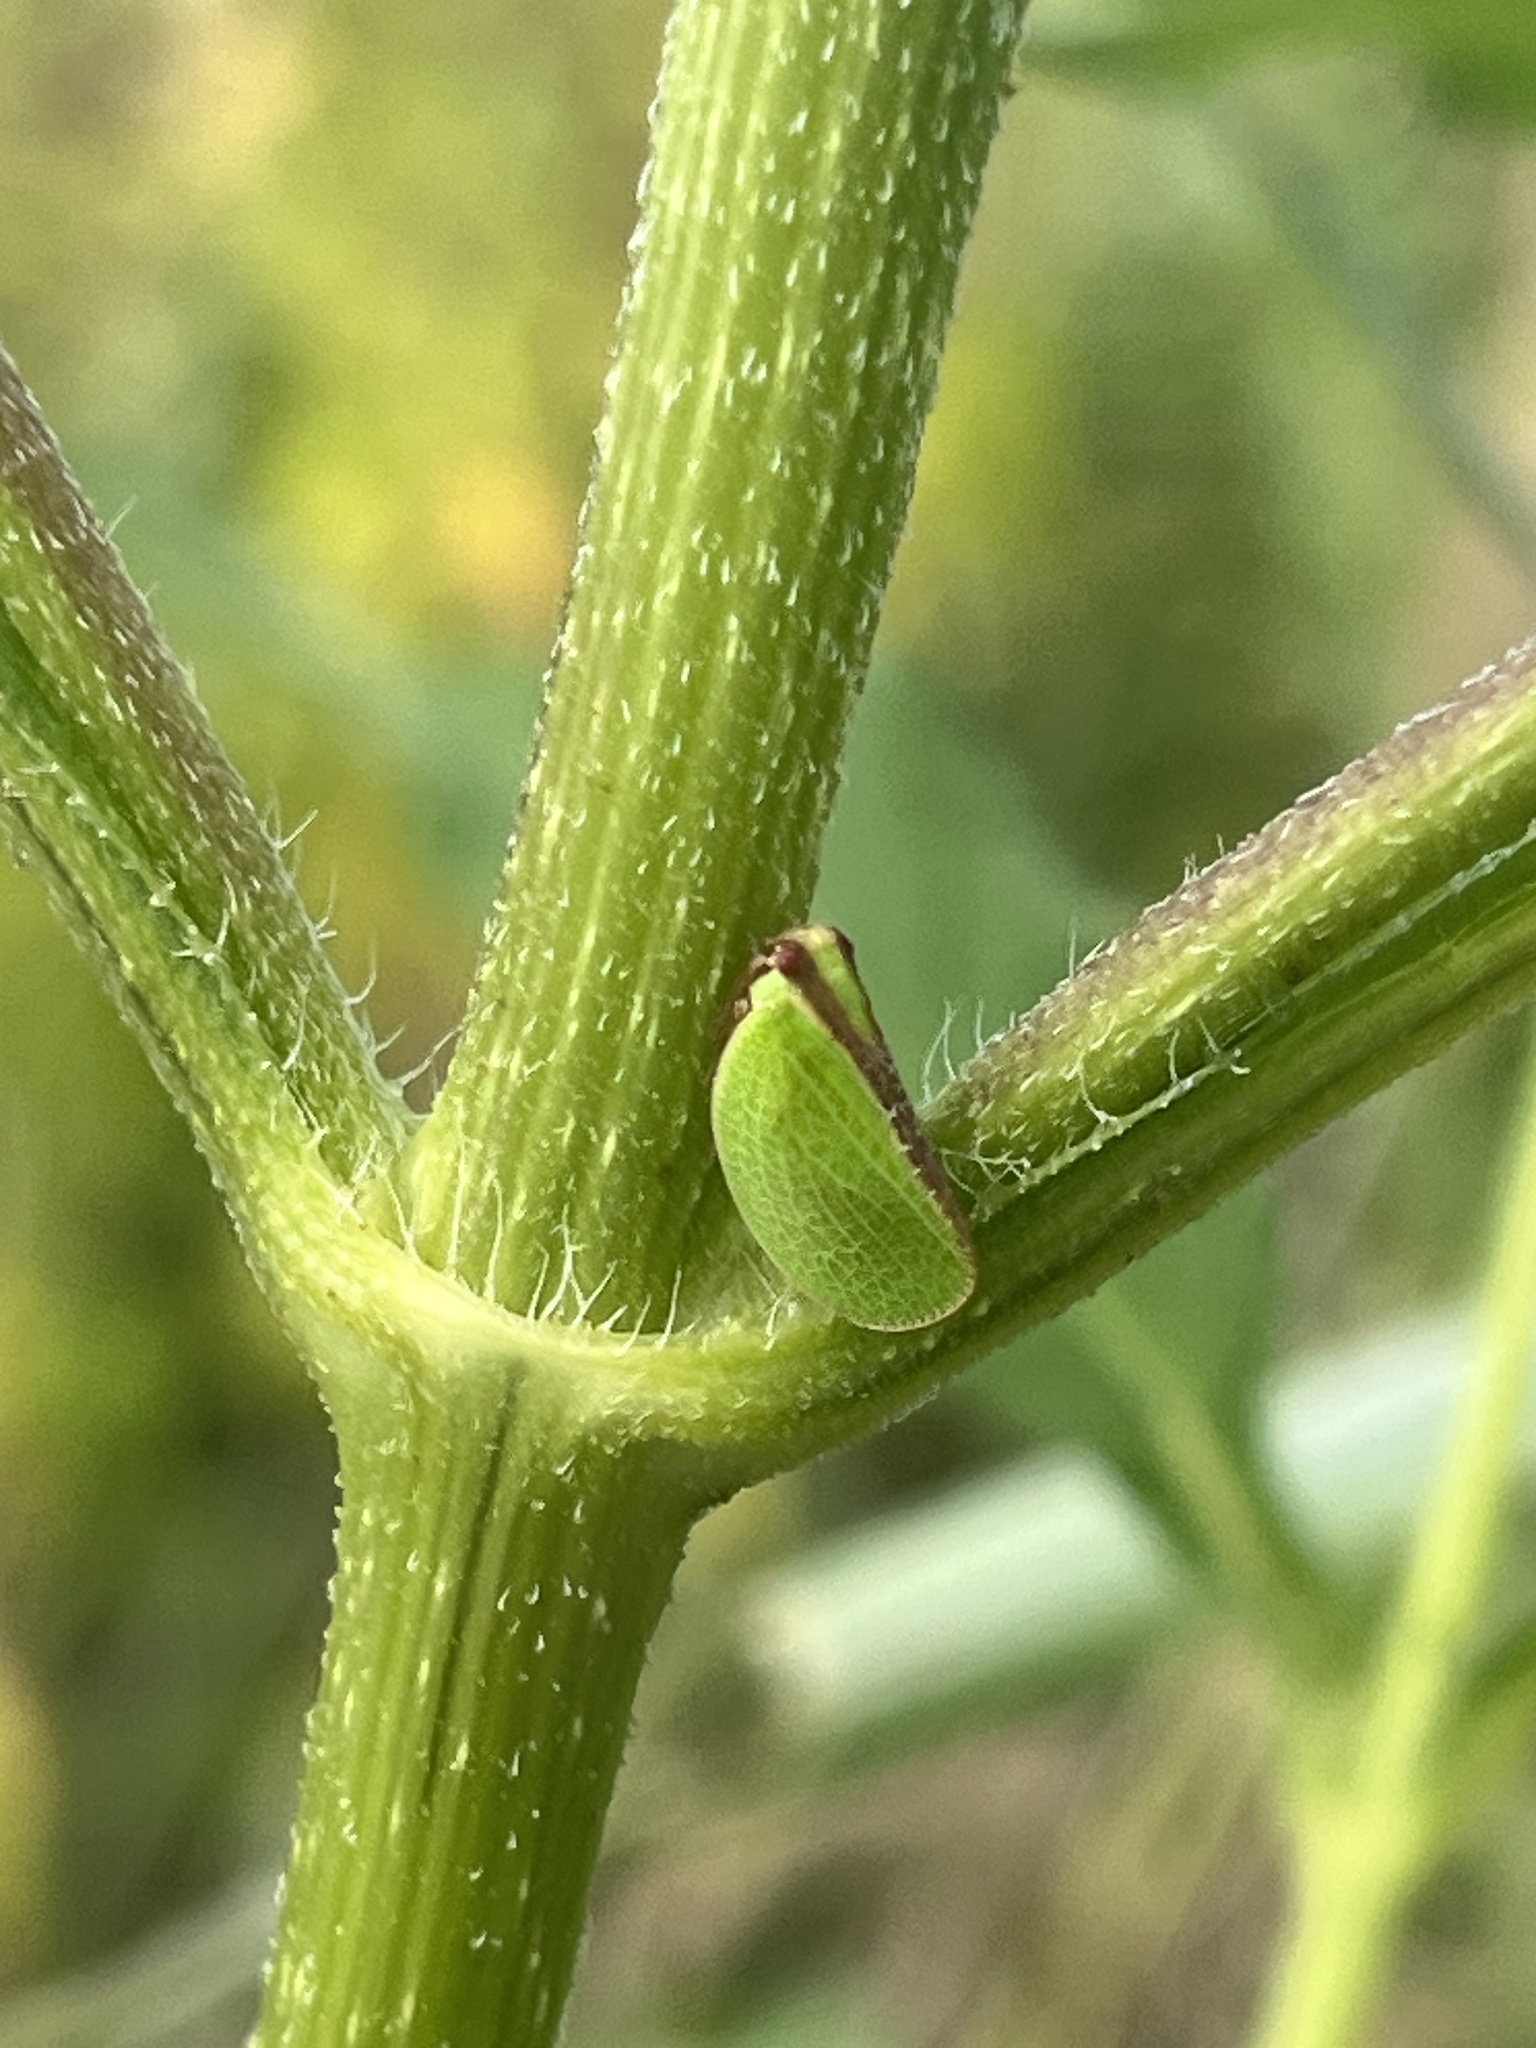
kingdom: Animalia
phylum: Arthropoda
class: Insecta
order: Hemiptera
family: Acanaloniidae
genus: Acanalonia
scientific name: Acanalonia bivittata
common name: Two-striped planthopper
